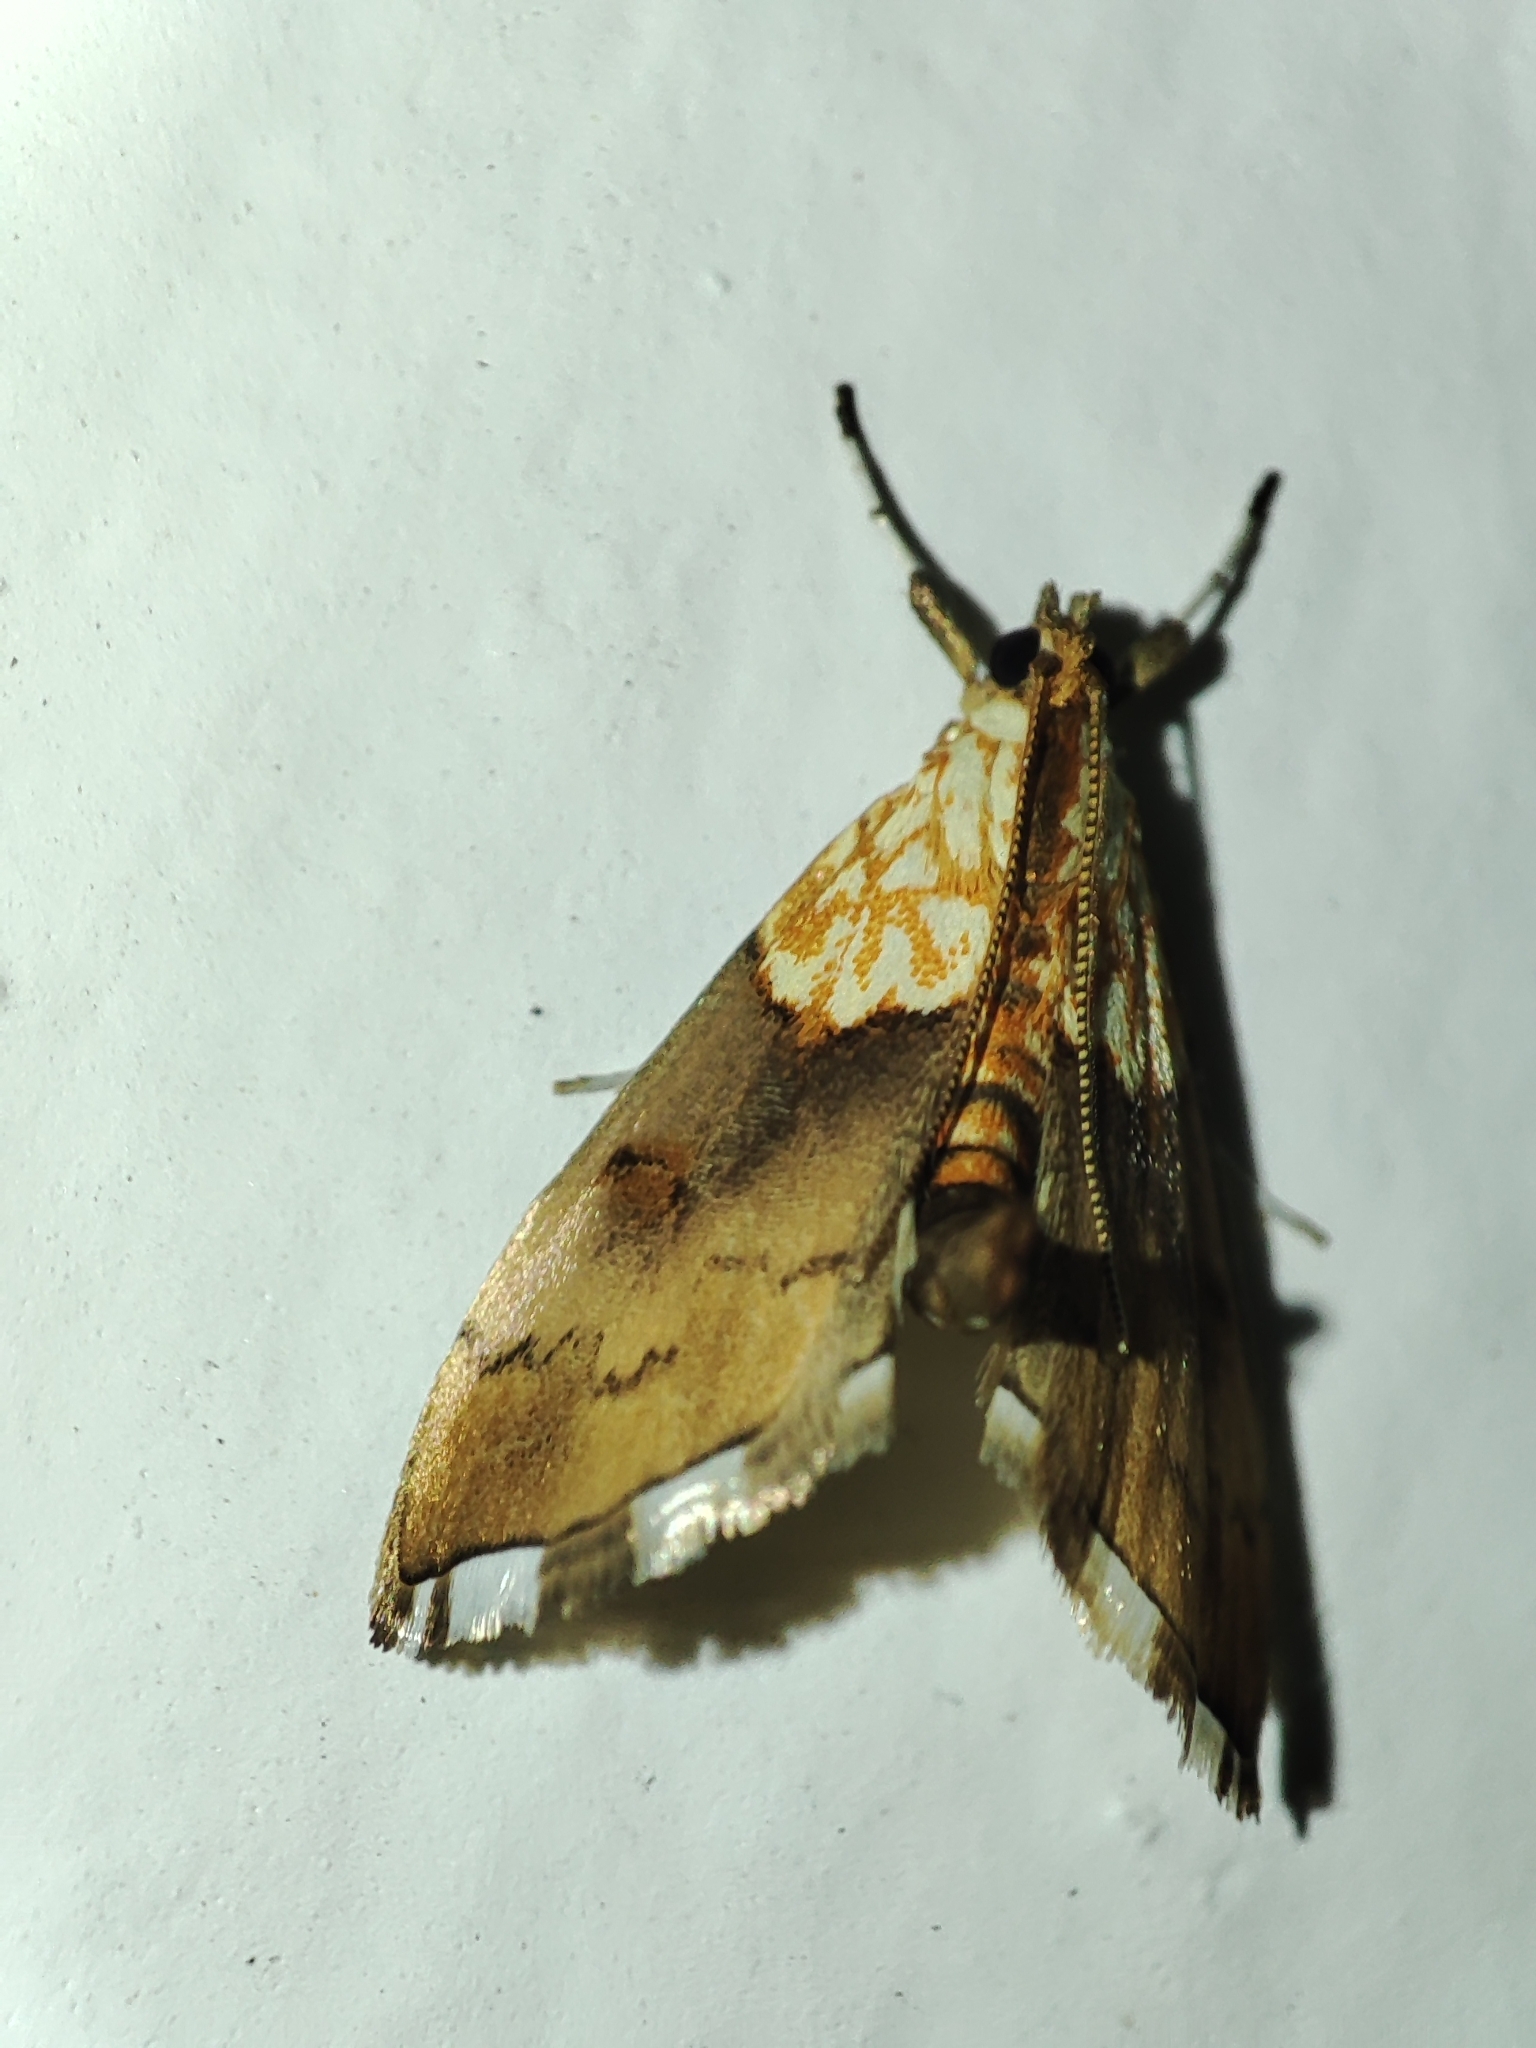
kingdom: Animalia
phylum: Arthropoda
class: Insecta
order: Lepidoptera
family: Crambidae
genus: Agrotera
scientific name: Agrotera nemoralis
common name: Beautiful pearl
